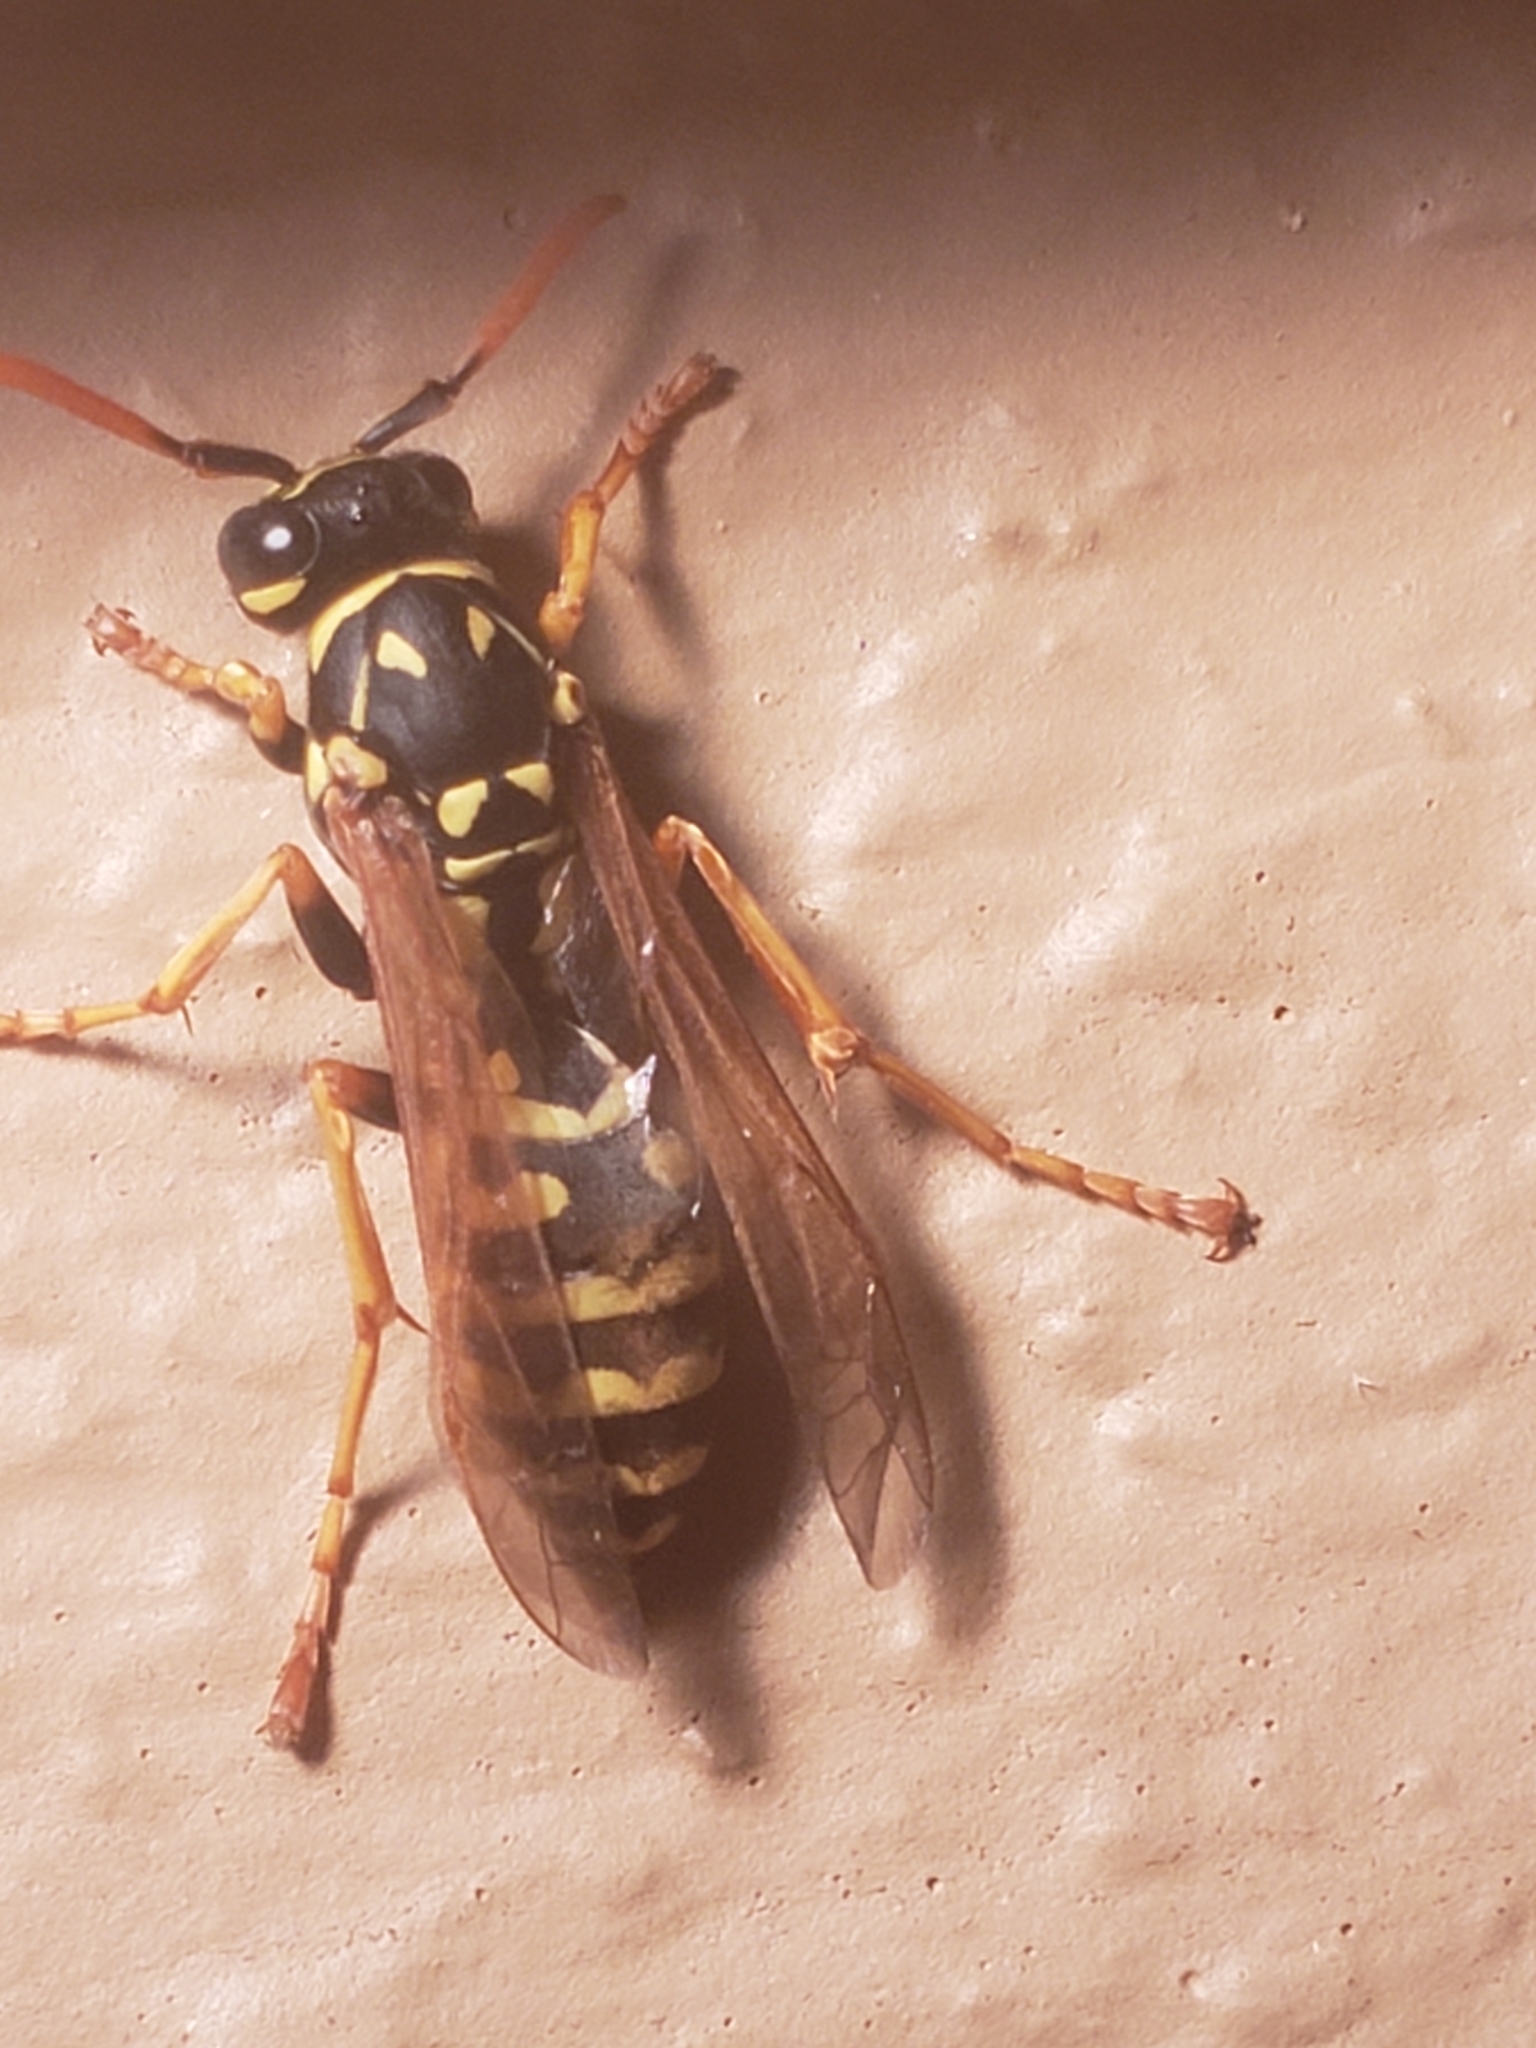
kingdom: Animalia
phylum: Arthropoda
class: Insecta
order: Hymenoptera
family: Eumenidae
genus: Polistes
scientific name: Polistes dominula
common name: Paper wasp
